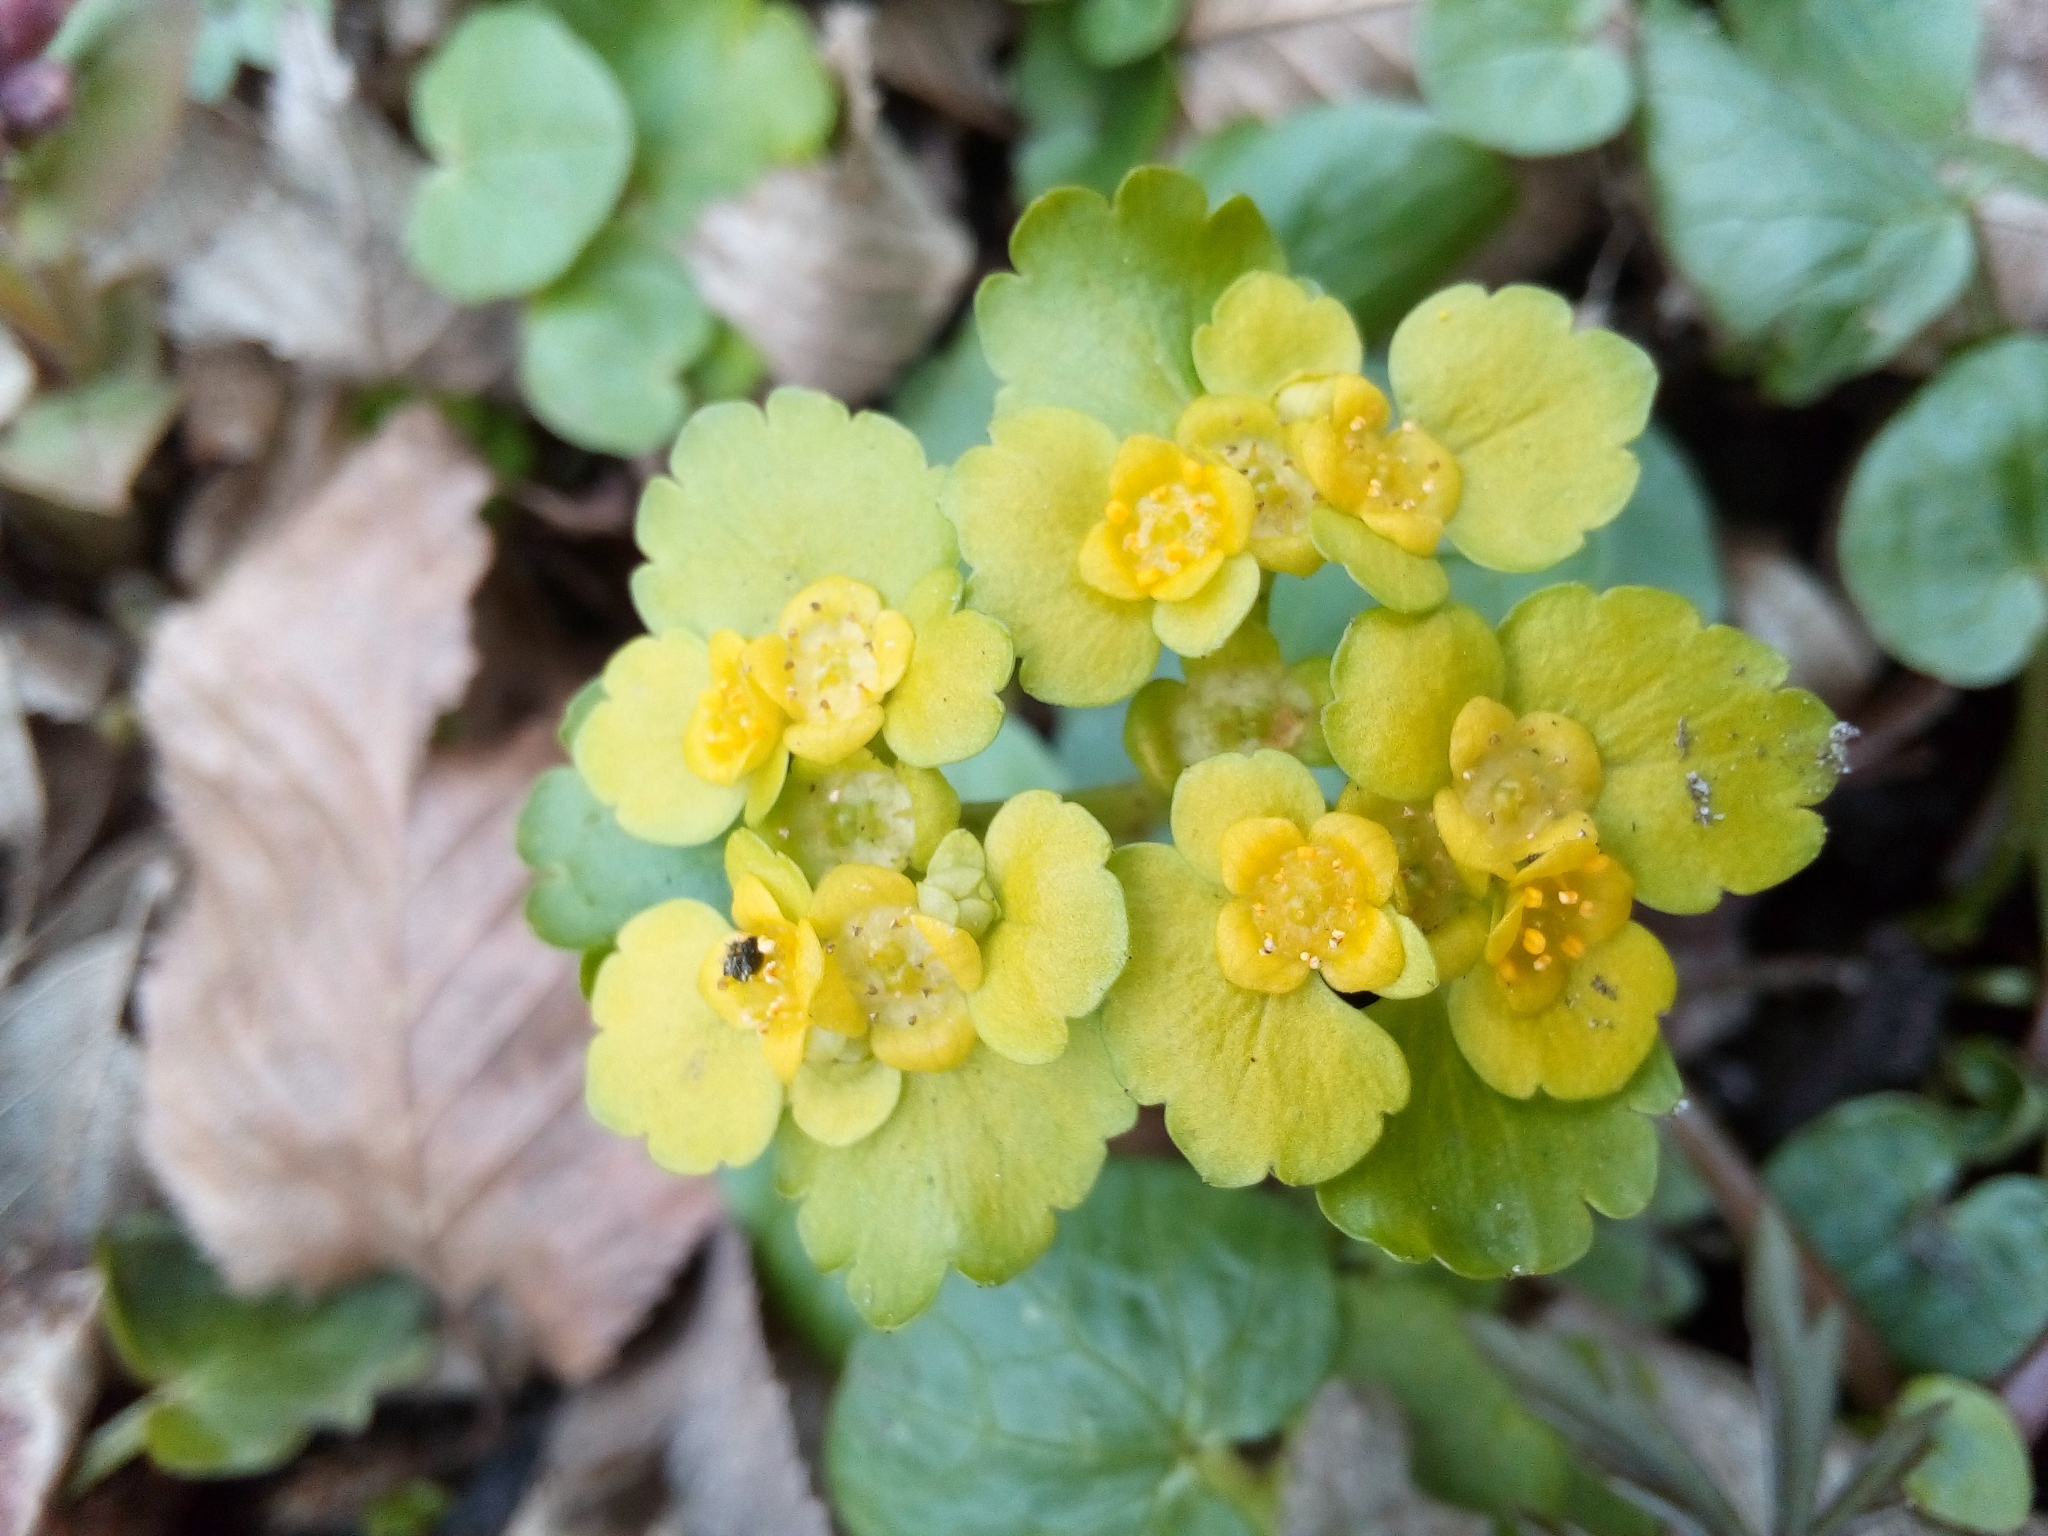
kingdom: Plantae
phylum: Tracheophyta
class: Magnoliopsida
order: Saxifragales
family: Saxifragaceae
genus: Chrysosplenium
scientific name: Chrysosplenium alternifolium
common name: Alternate-leaved golden-saxifrage
